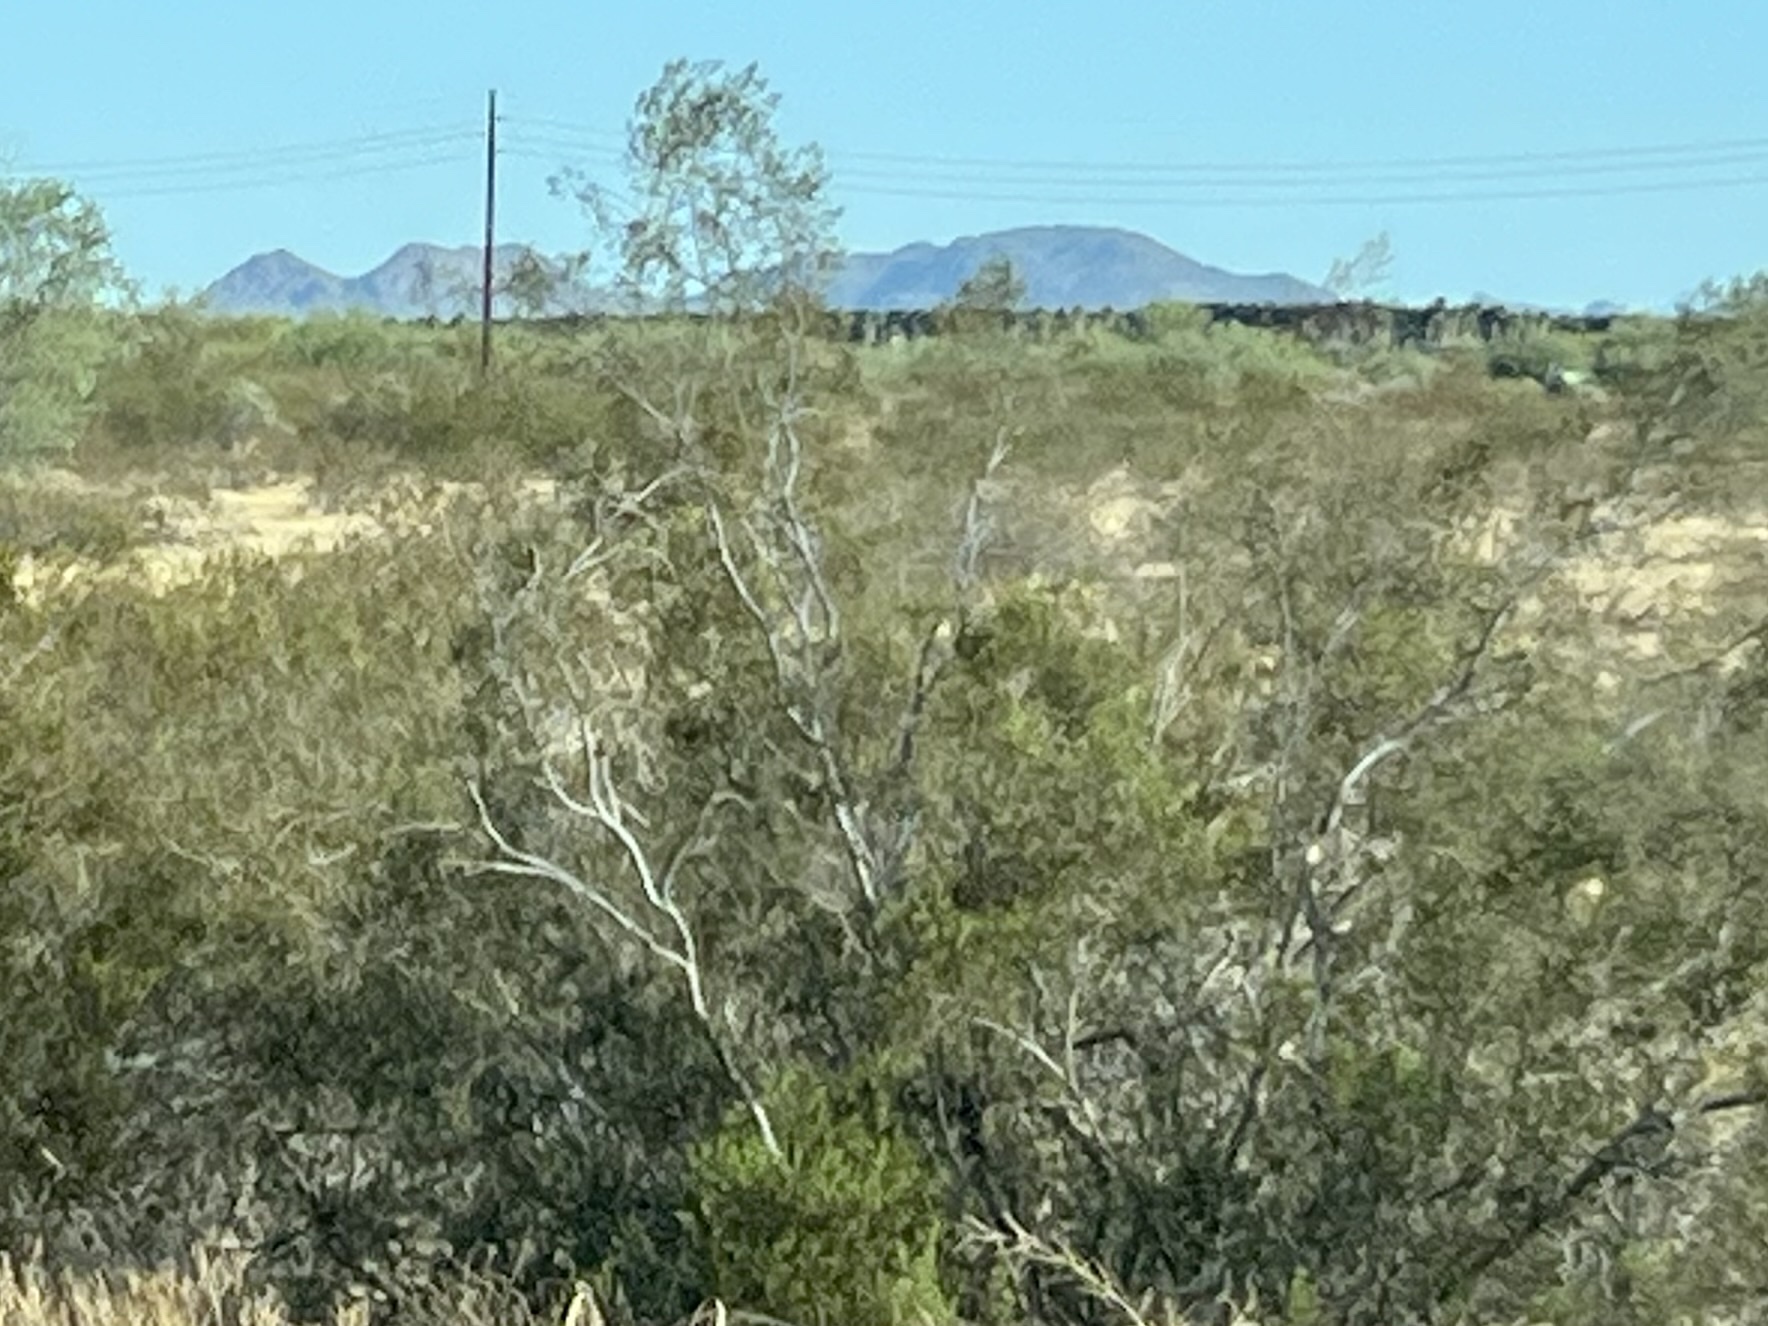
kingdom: Plantae
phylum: Tracheophyta
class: Magnoliopsida
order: Zygophyllales
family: Zygophyllaceae
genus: Larrea
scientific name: Larrea tridentata
